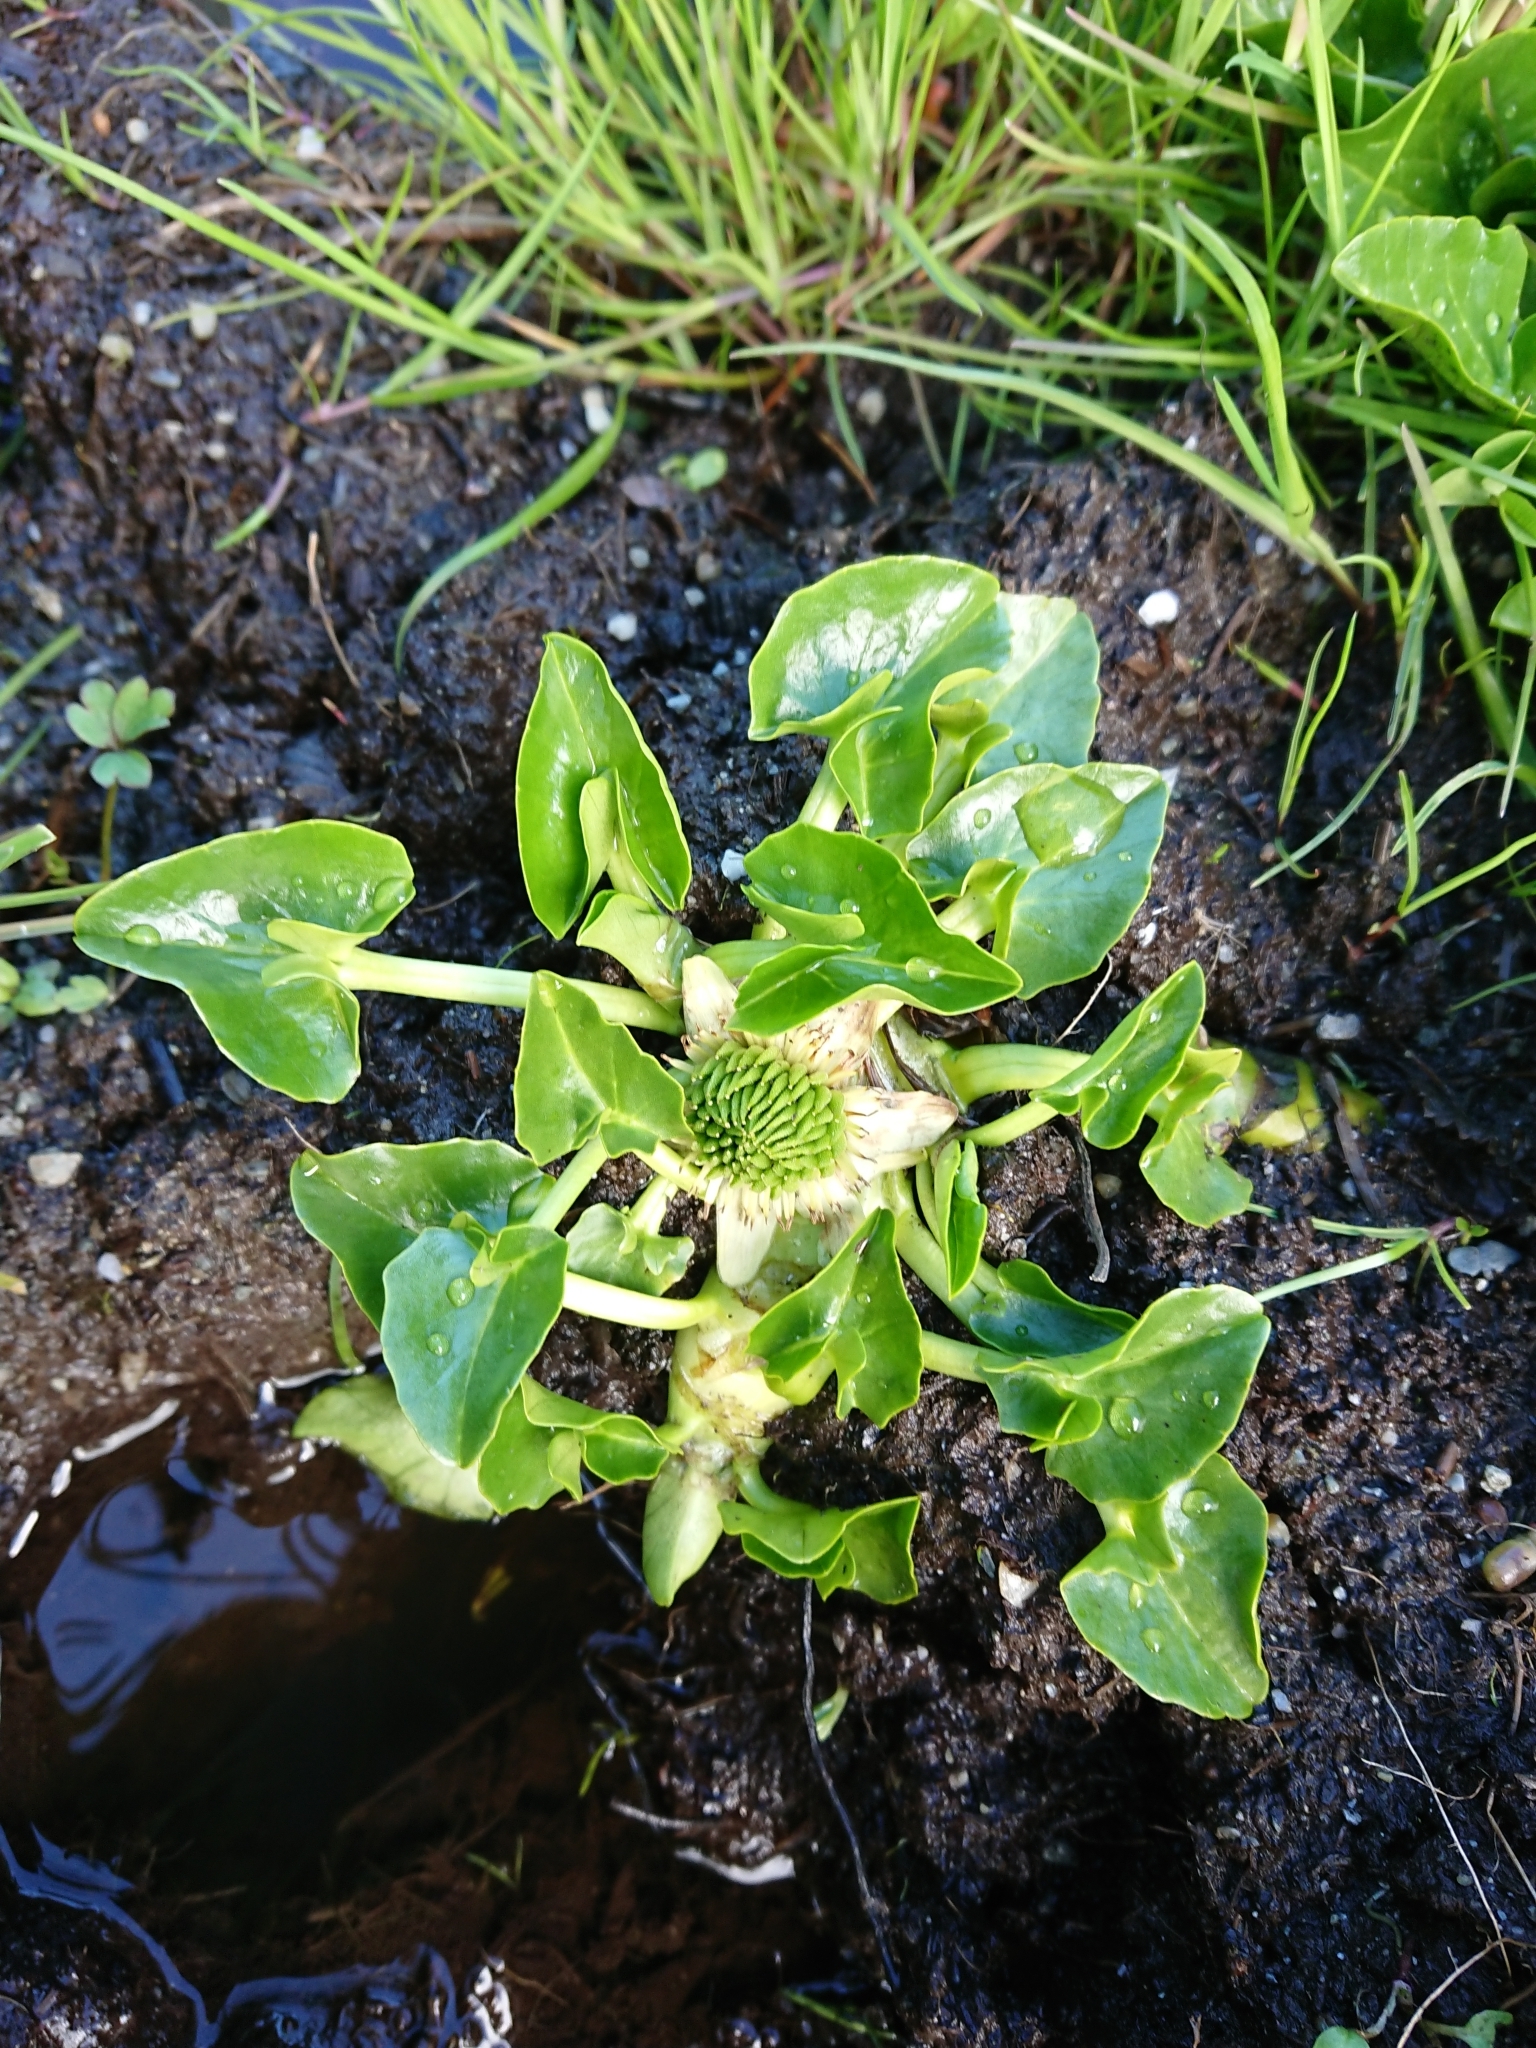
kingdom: Plantae
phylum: Tracheophyta
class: Magnoliopsida
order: Ranunculales
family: Ranunculaceae
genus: Caltha
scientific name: Caltha sagittata
